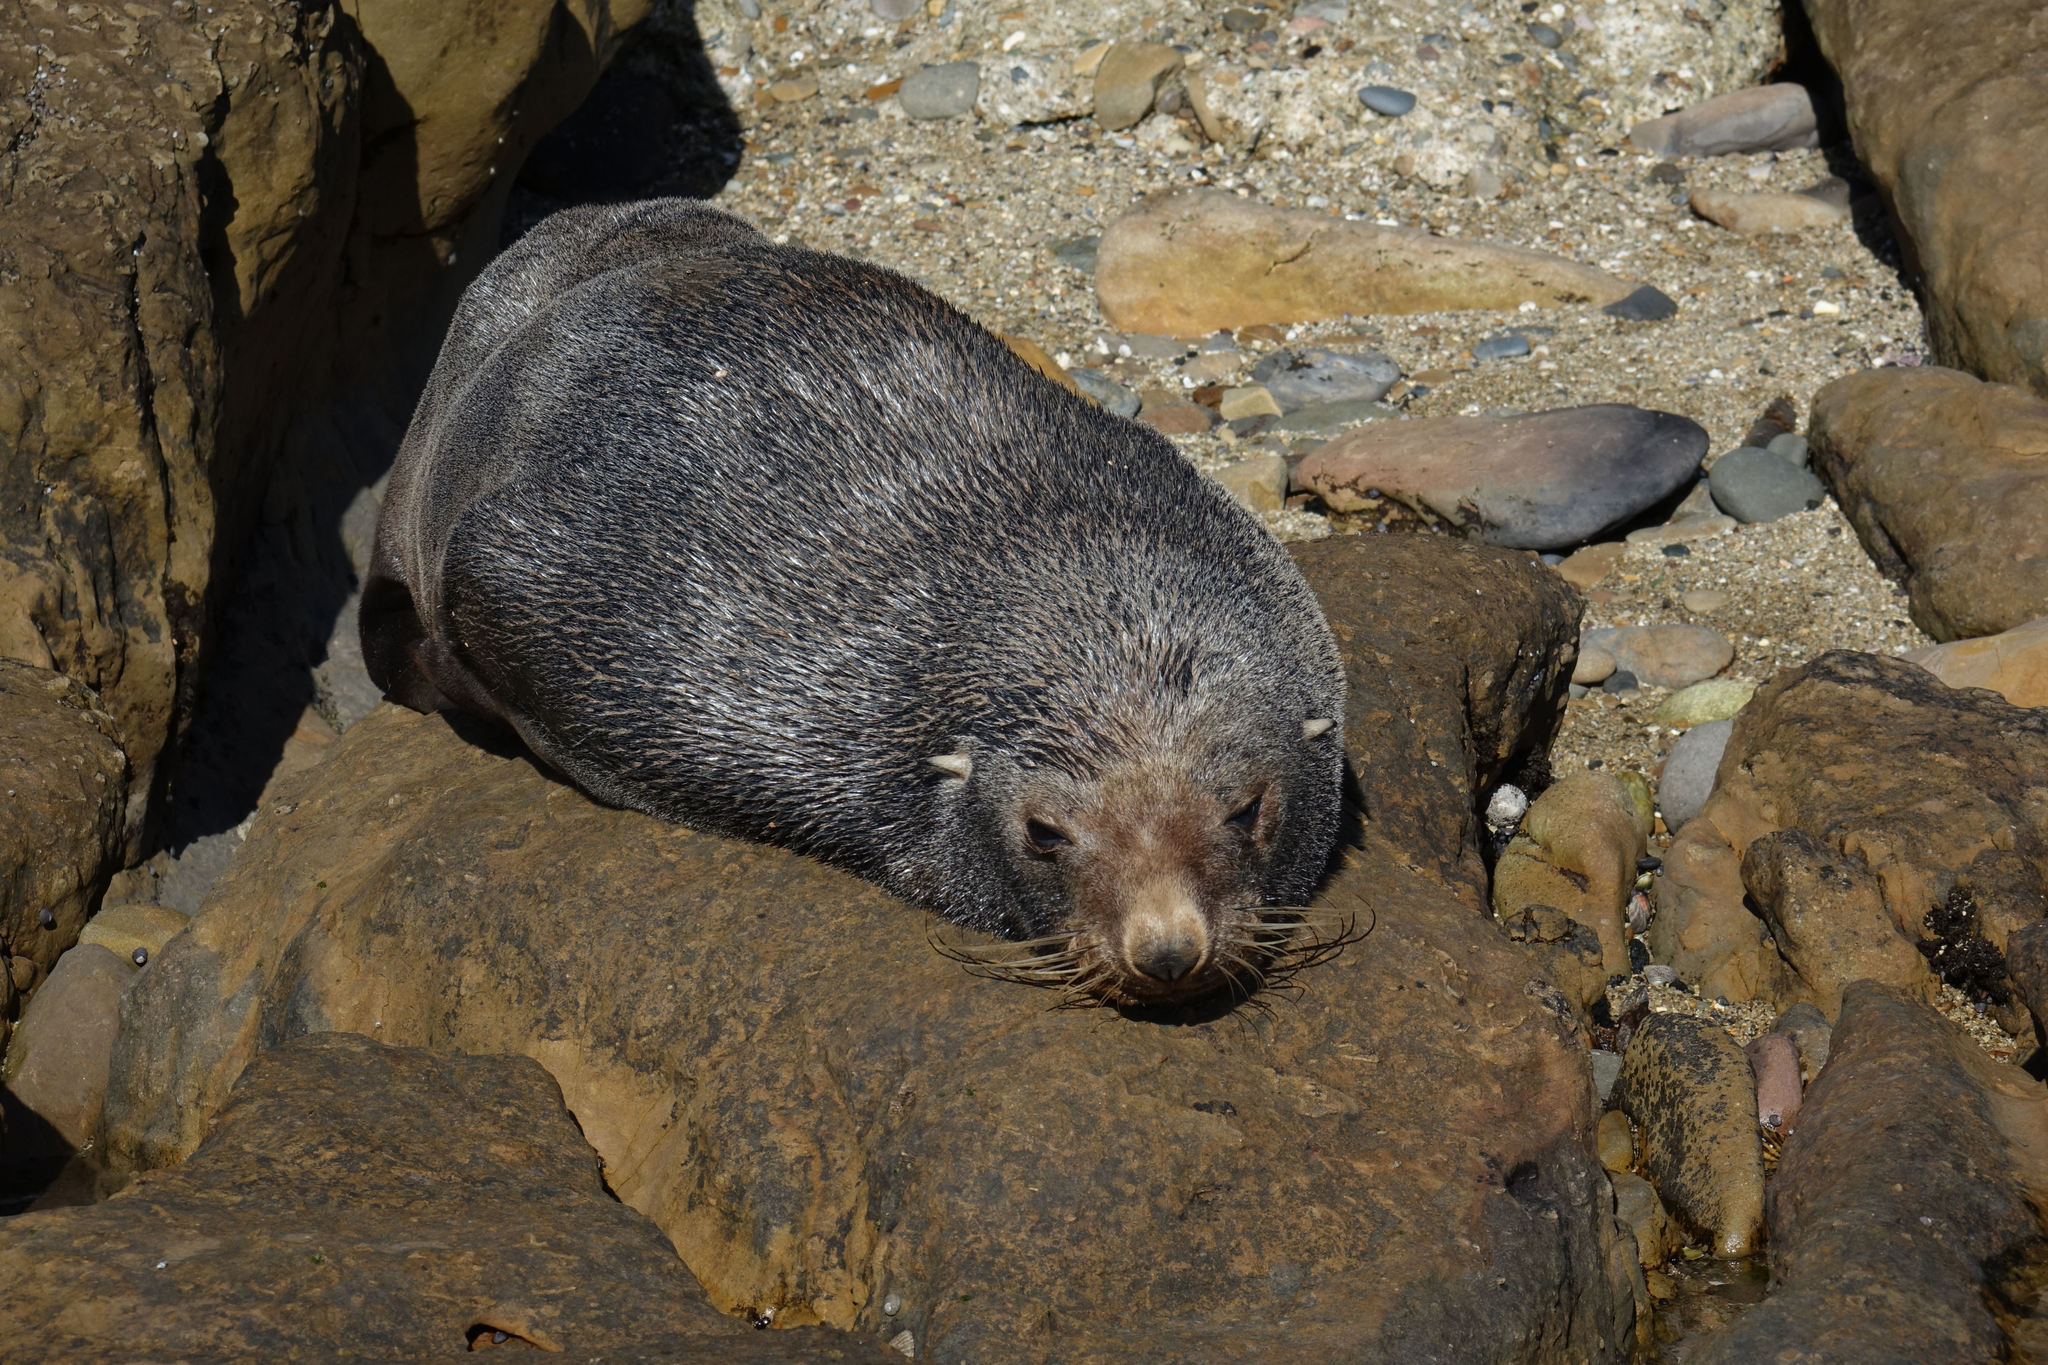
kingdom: Animalia
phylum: Chordata
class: Mammalia
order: Carnivora
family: Otariidae
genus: Arctocephalus
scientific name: Arctocephalus forsteri
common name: New zealand fur seal
